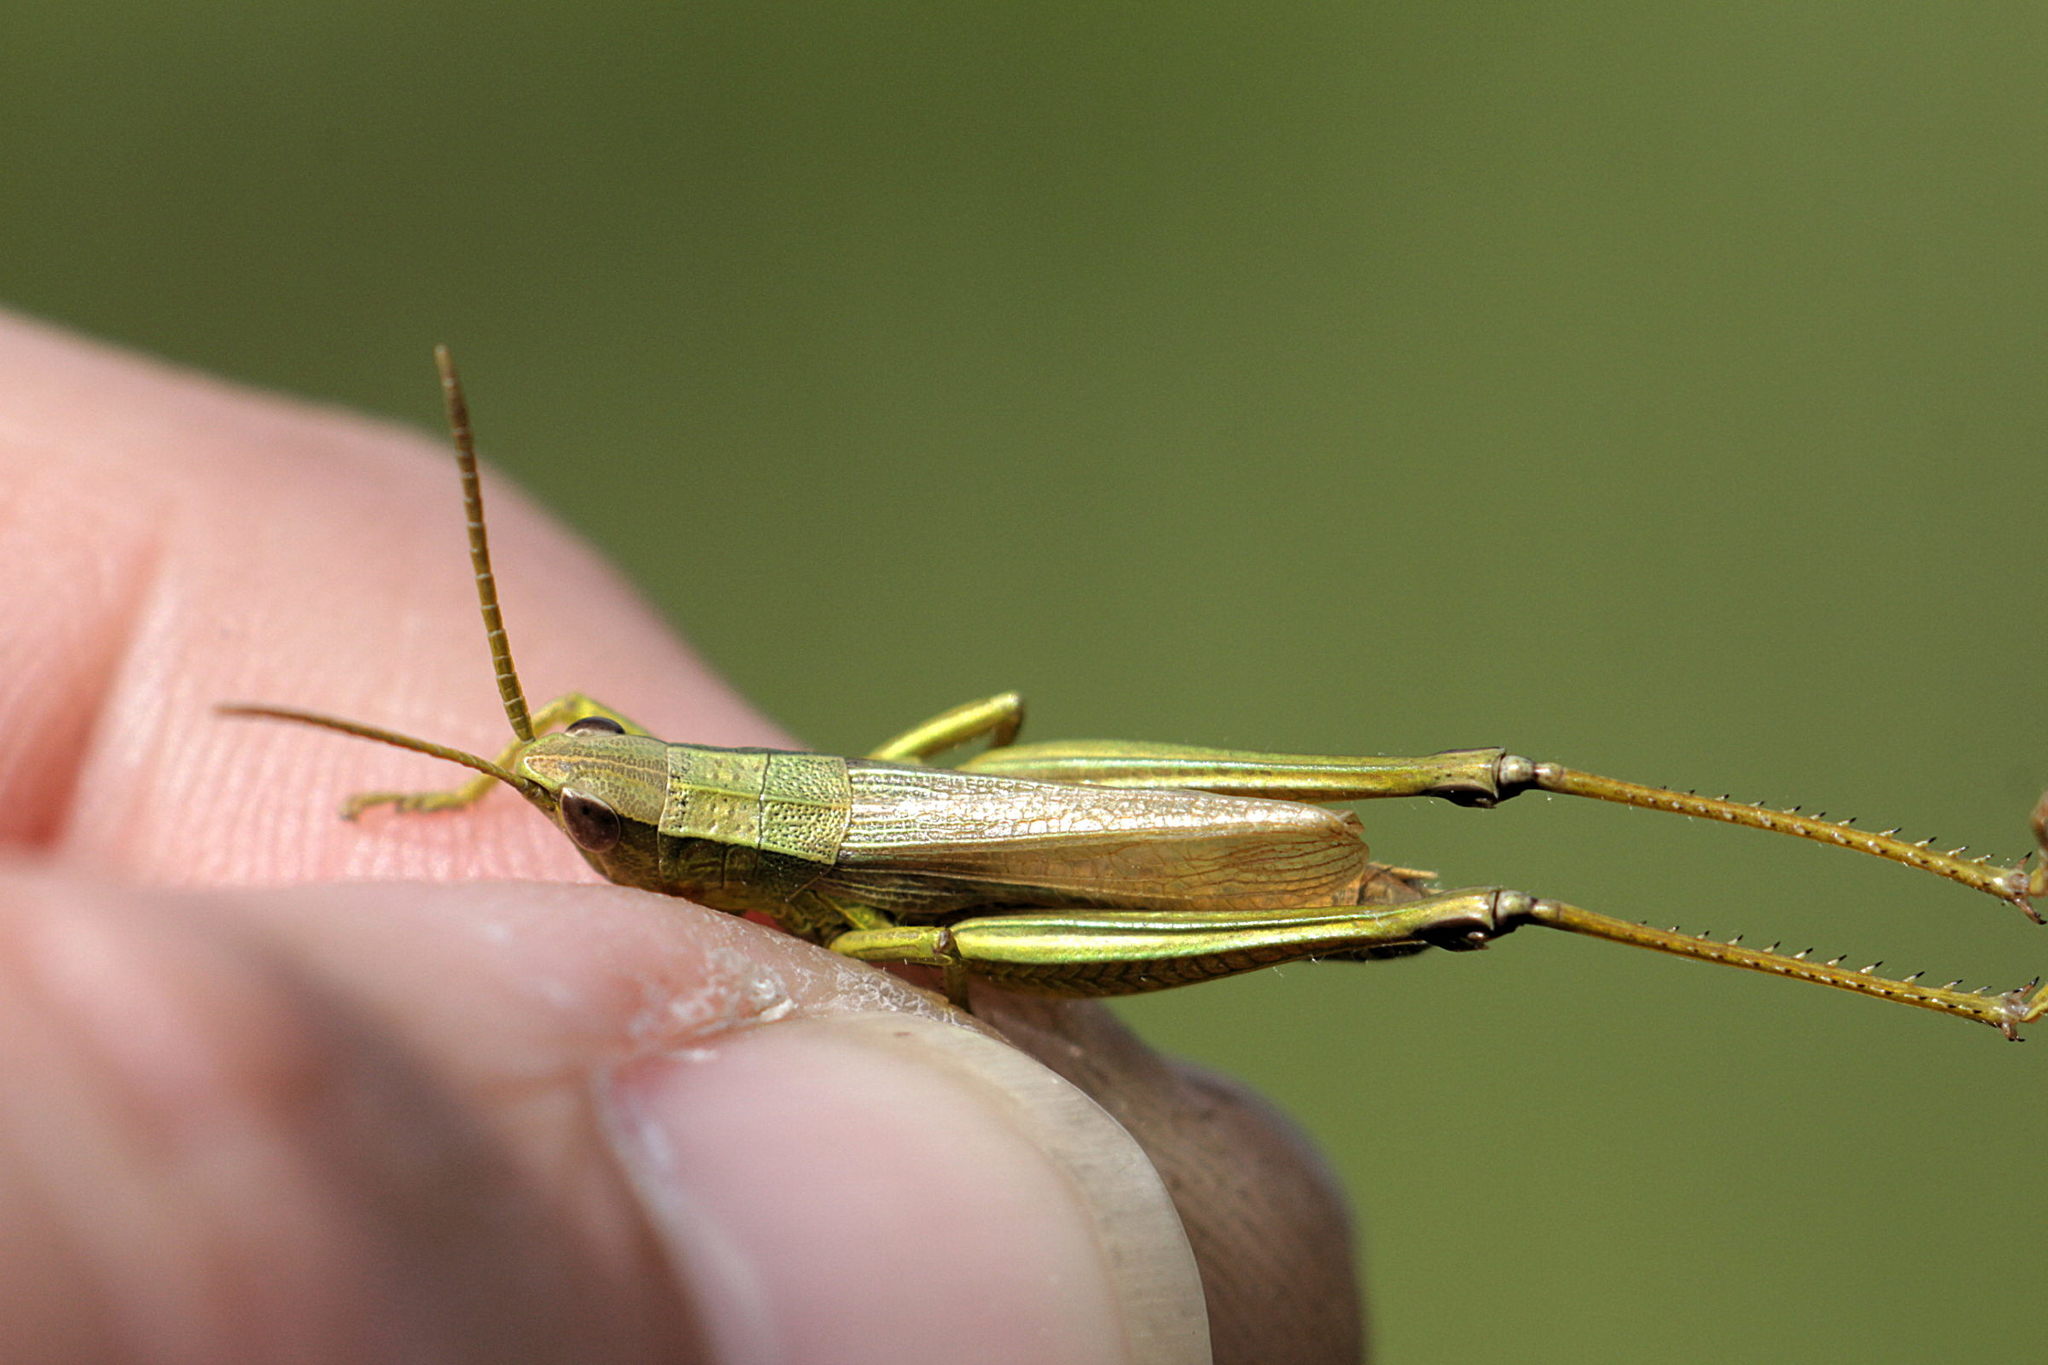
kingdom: Animalia
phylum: Arthropoda
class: Insecta
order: Orthoptera
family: Acrididae
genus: Chrysochraon
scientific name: Chrysochraon dispar
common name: Large gold grasshopper
